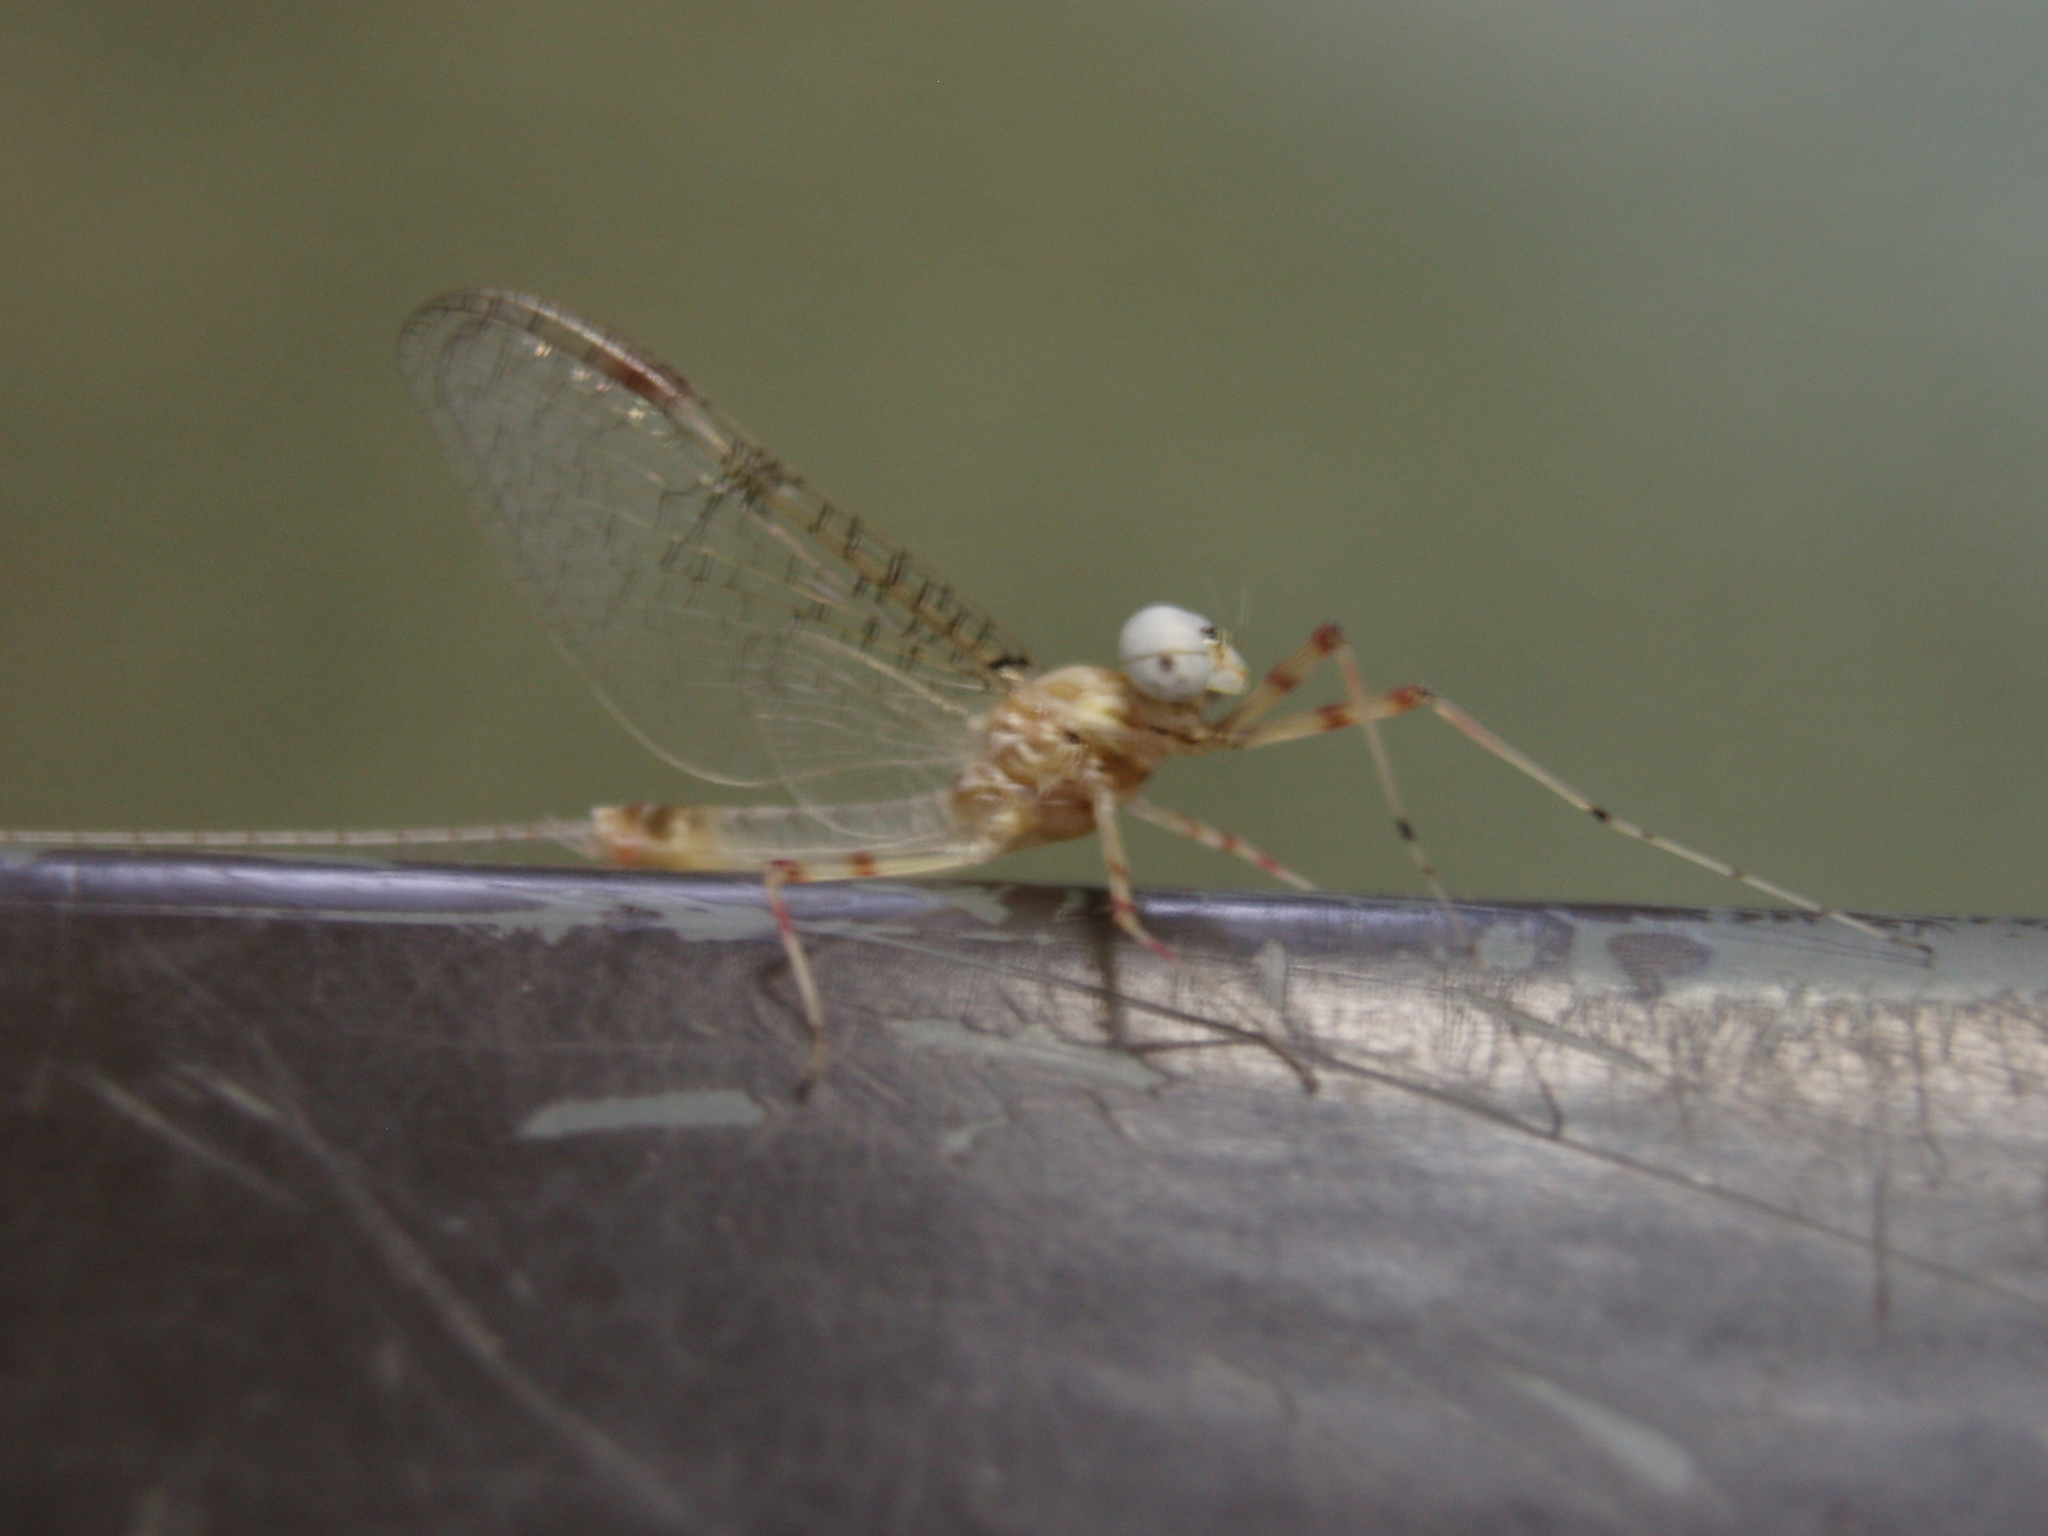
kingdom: Animalia
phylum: Arthropoda
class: Insecta
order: Ephemeroptera
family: Heptageniidae
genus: Stenonema
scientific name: Stenonema femoratum
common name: Dark cahill
